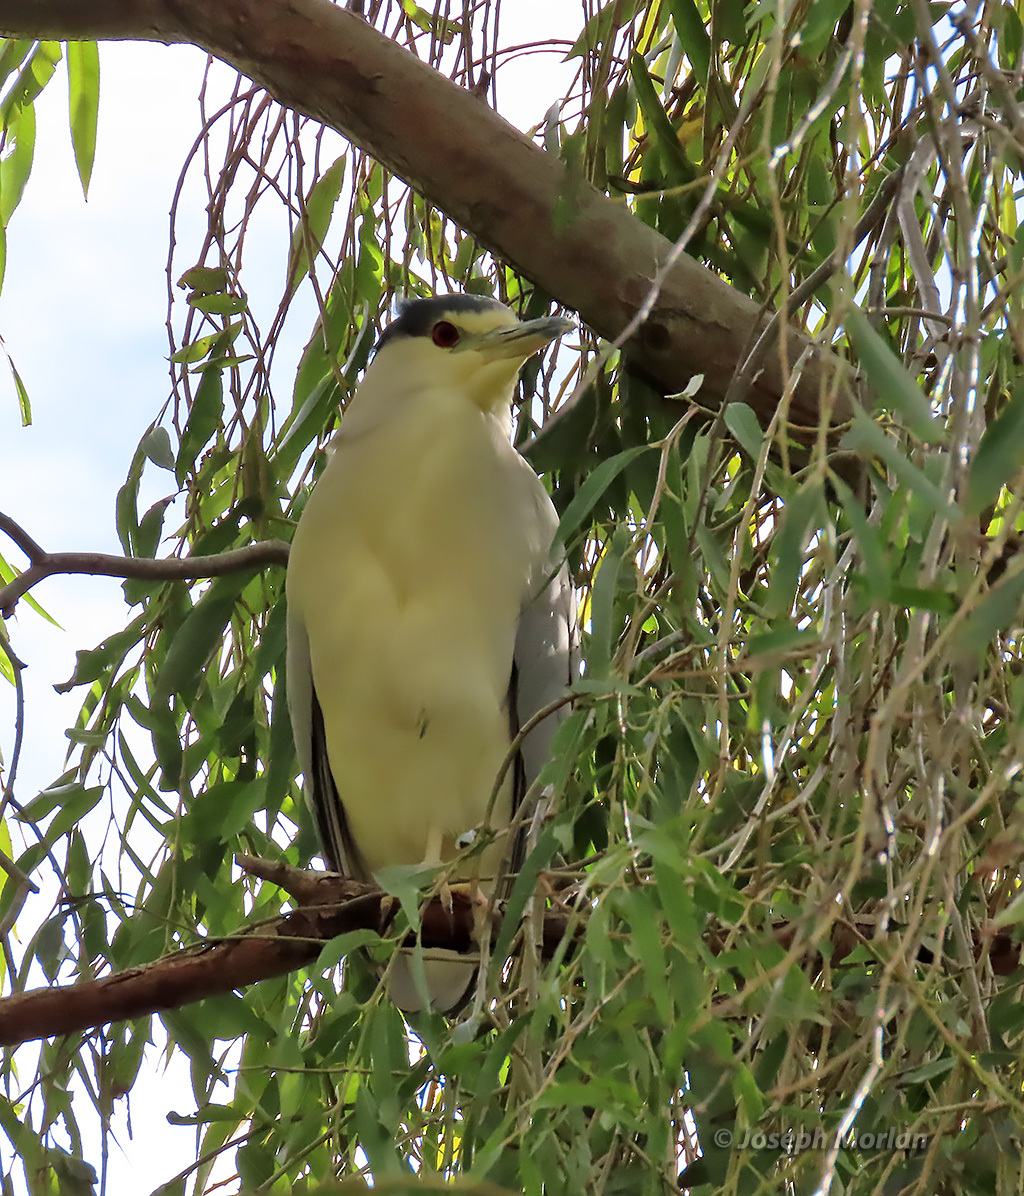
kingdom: Animalia
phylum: Chordata
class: Aves
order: Pelecaniformes
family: Ardeidae
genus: Nycticorax
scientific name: Nycticorax nycticorax
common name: Black-crowned night heron
